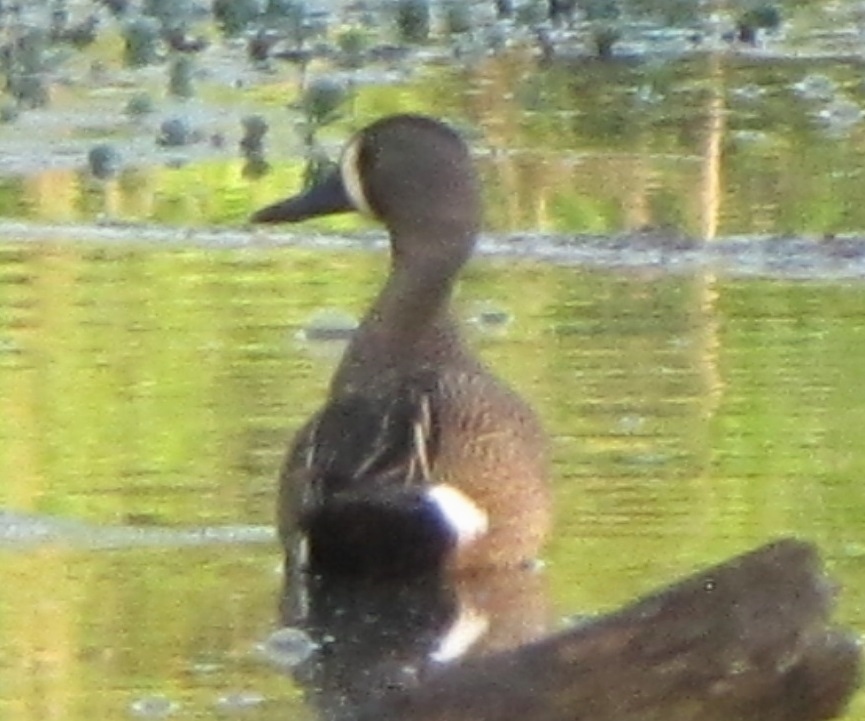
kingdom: Animalia
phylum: Chordata
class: Aves
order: Anseriformes
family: Anatidae
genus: Spatula
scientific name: Spatula discors
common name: Blue-winged teal
